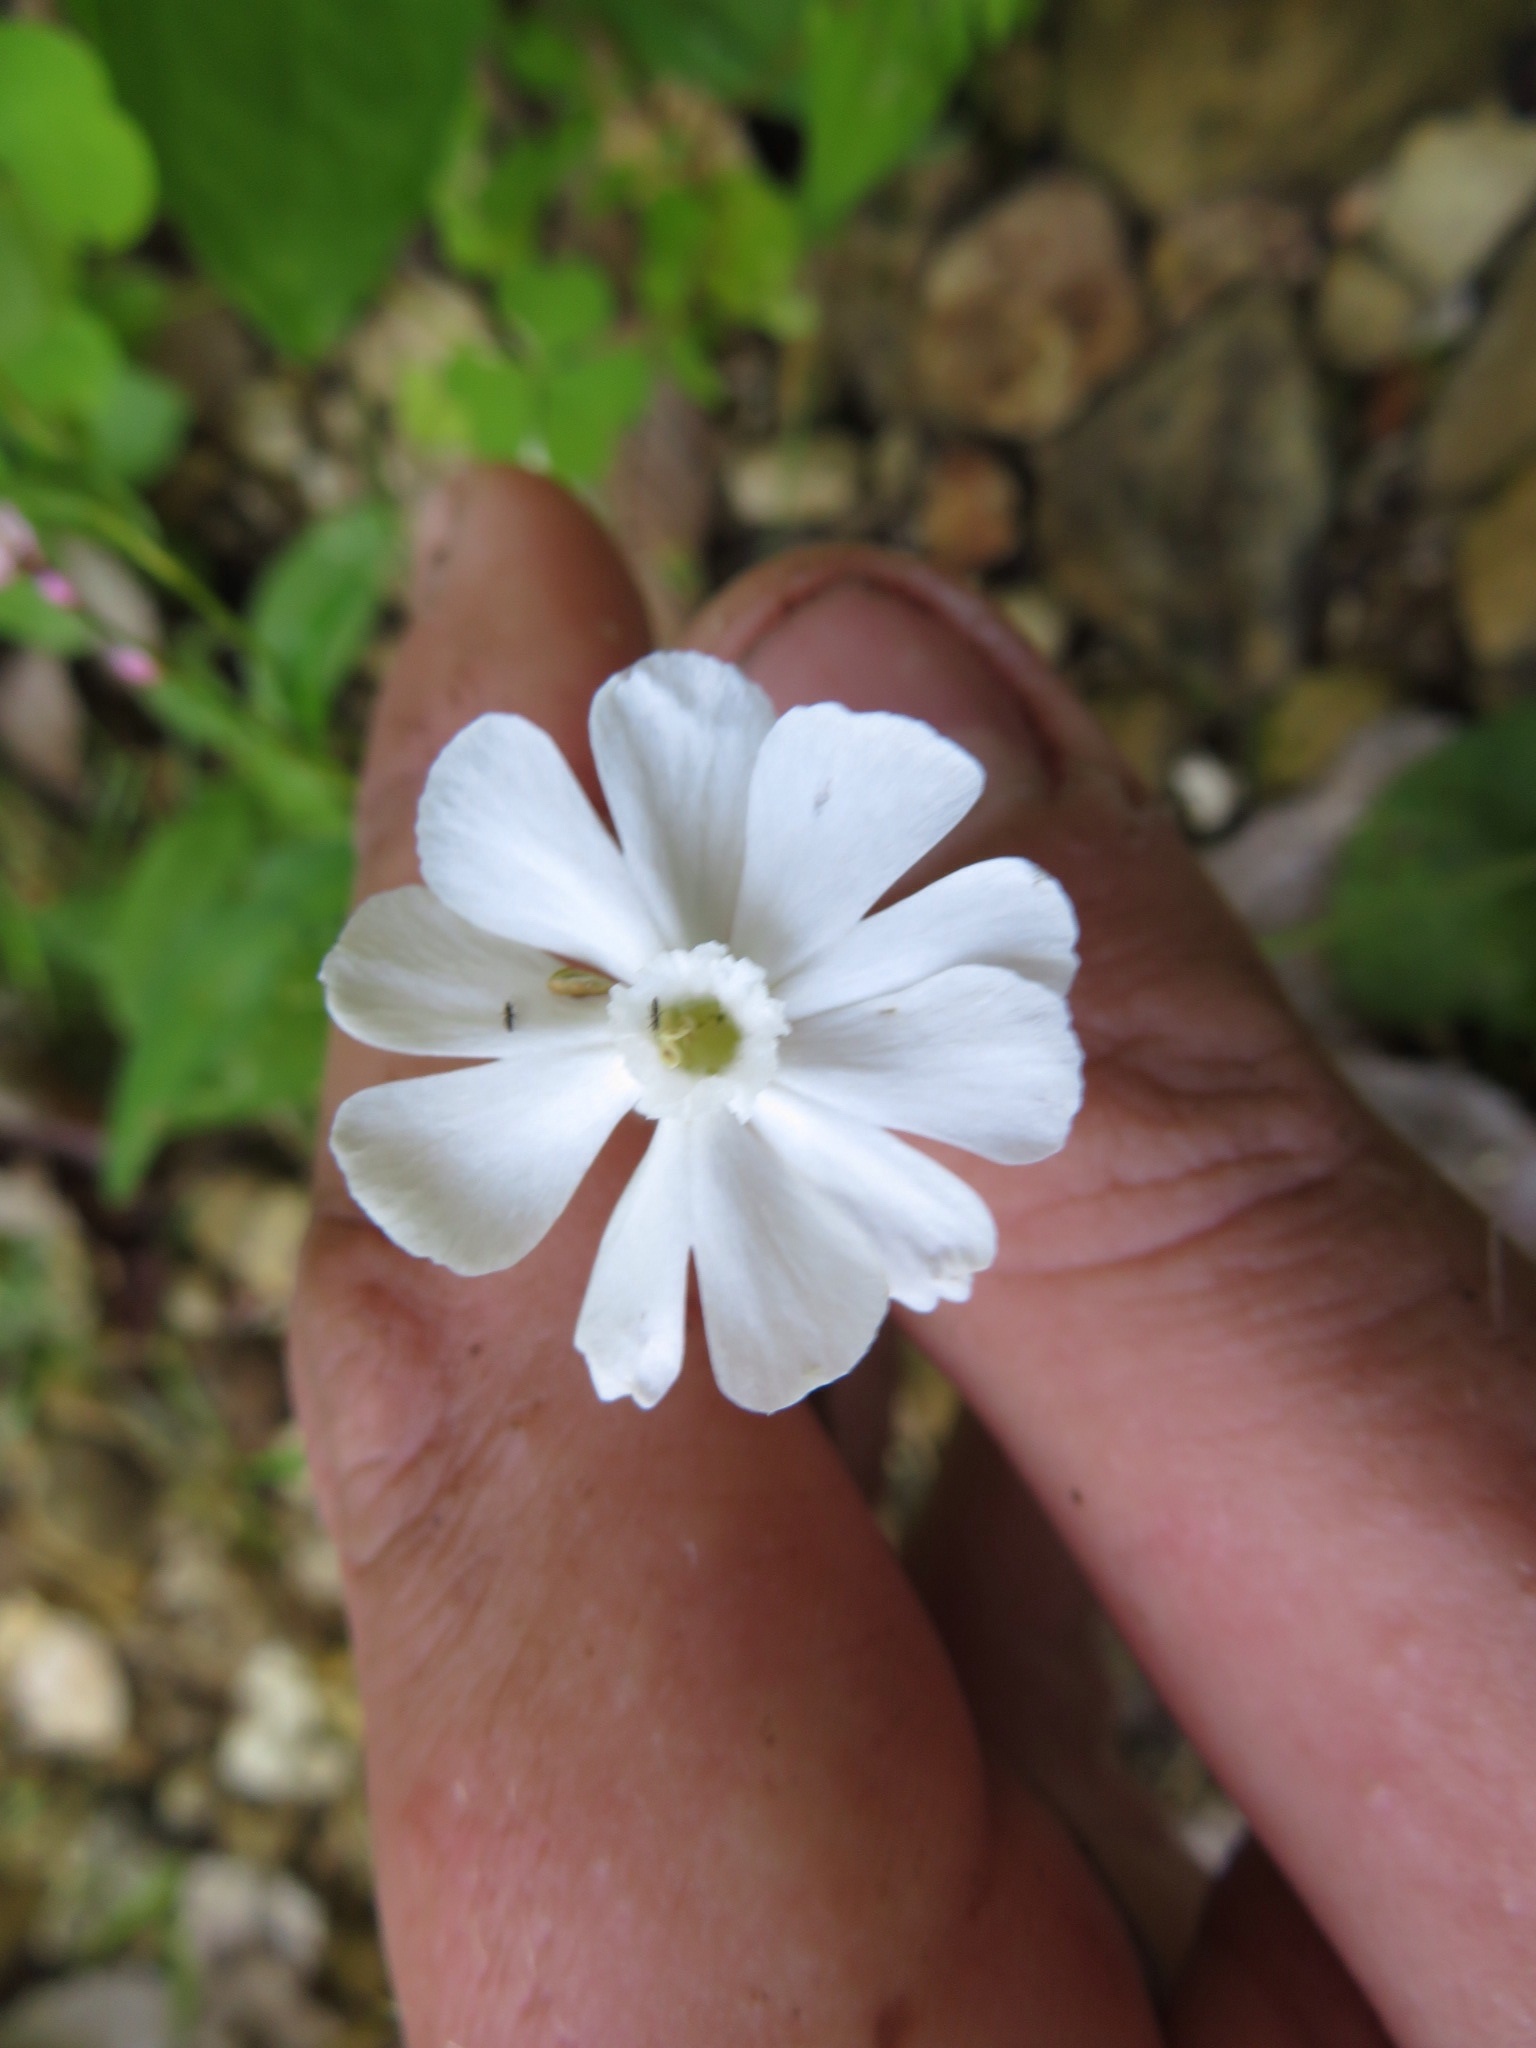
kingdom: Plantae
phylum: Tracheophyta
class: Magnoliopsida
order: Caryophyllales
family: Caryophyllaceae
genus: Silene
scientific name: Silene latifolia
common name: White campion
